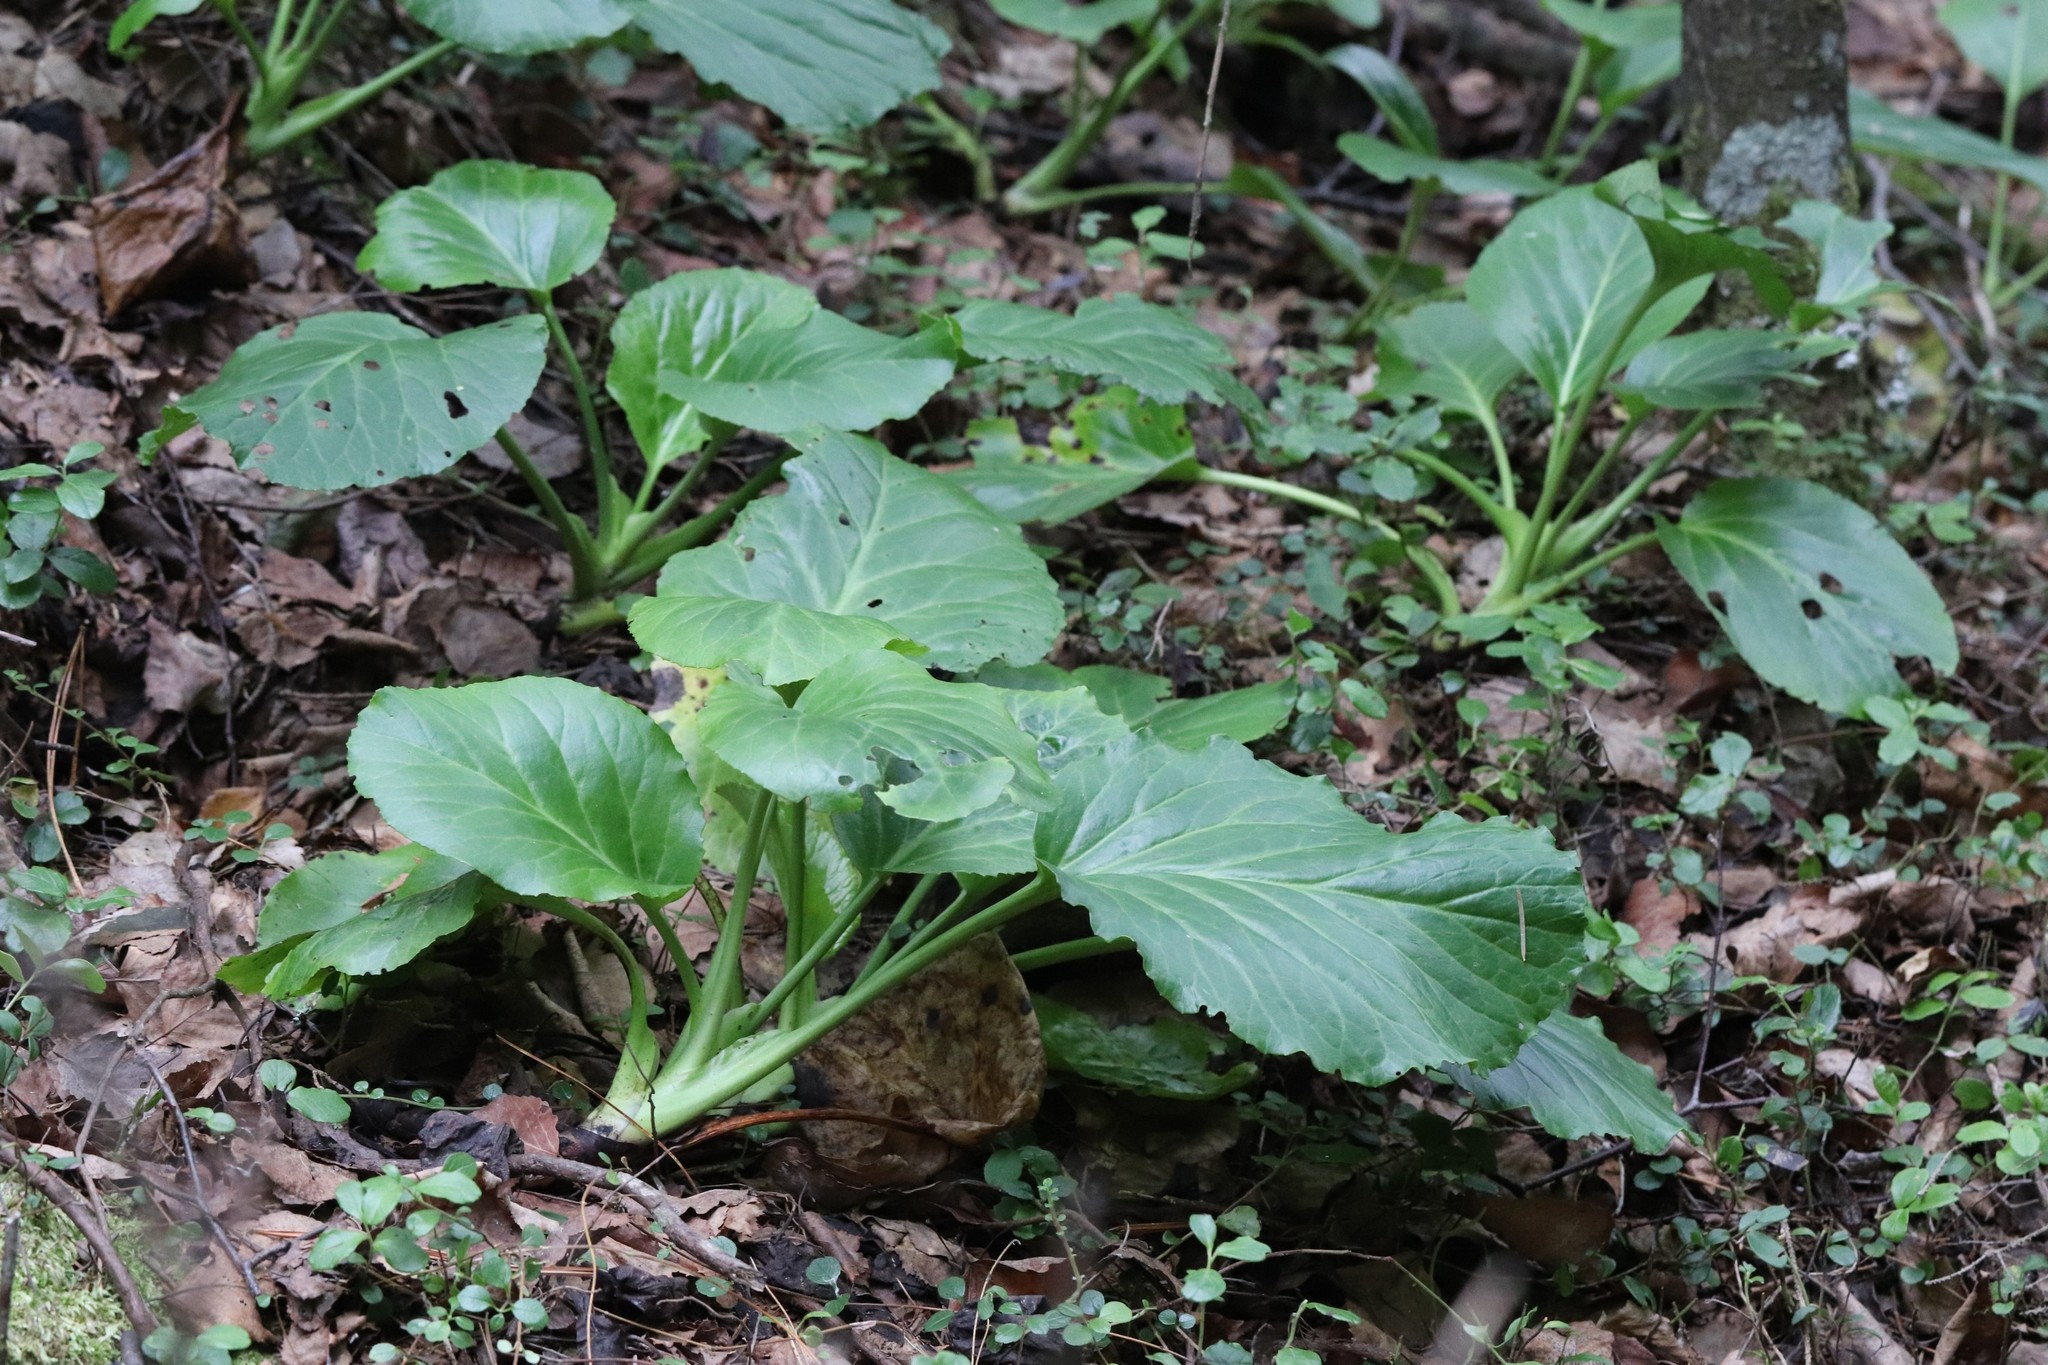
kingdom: Plantae
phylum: Tracheophyta
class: Magnoliopsida
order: Saxifragales
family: Saxifragaceae
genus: Bergenia
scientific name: Bergenia crassifolia
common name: Elephant-ears
